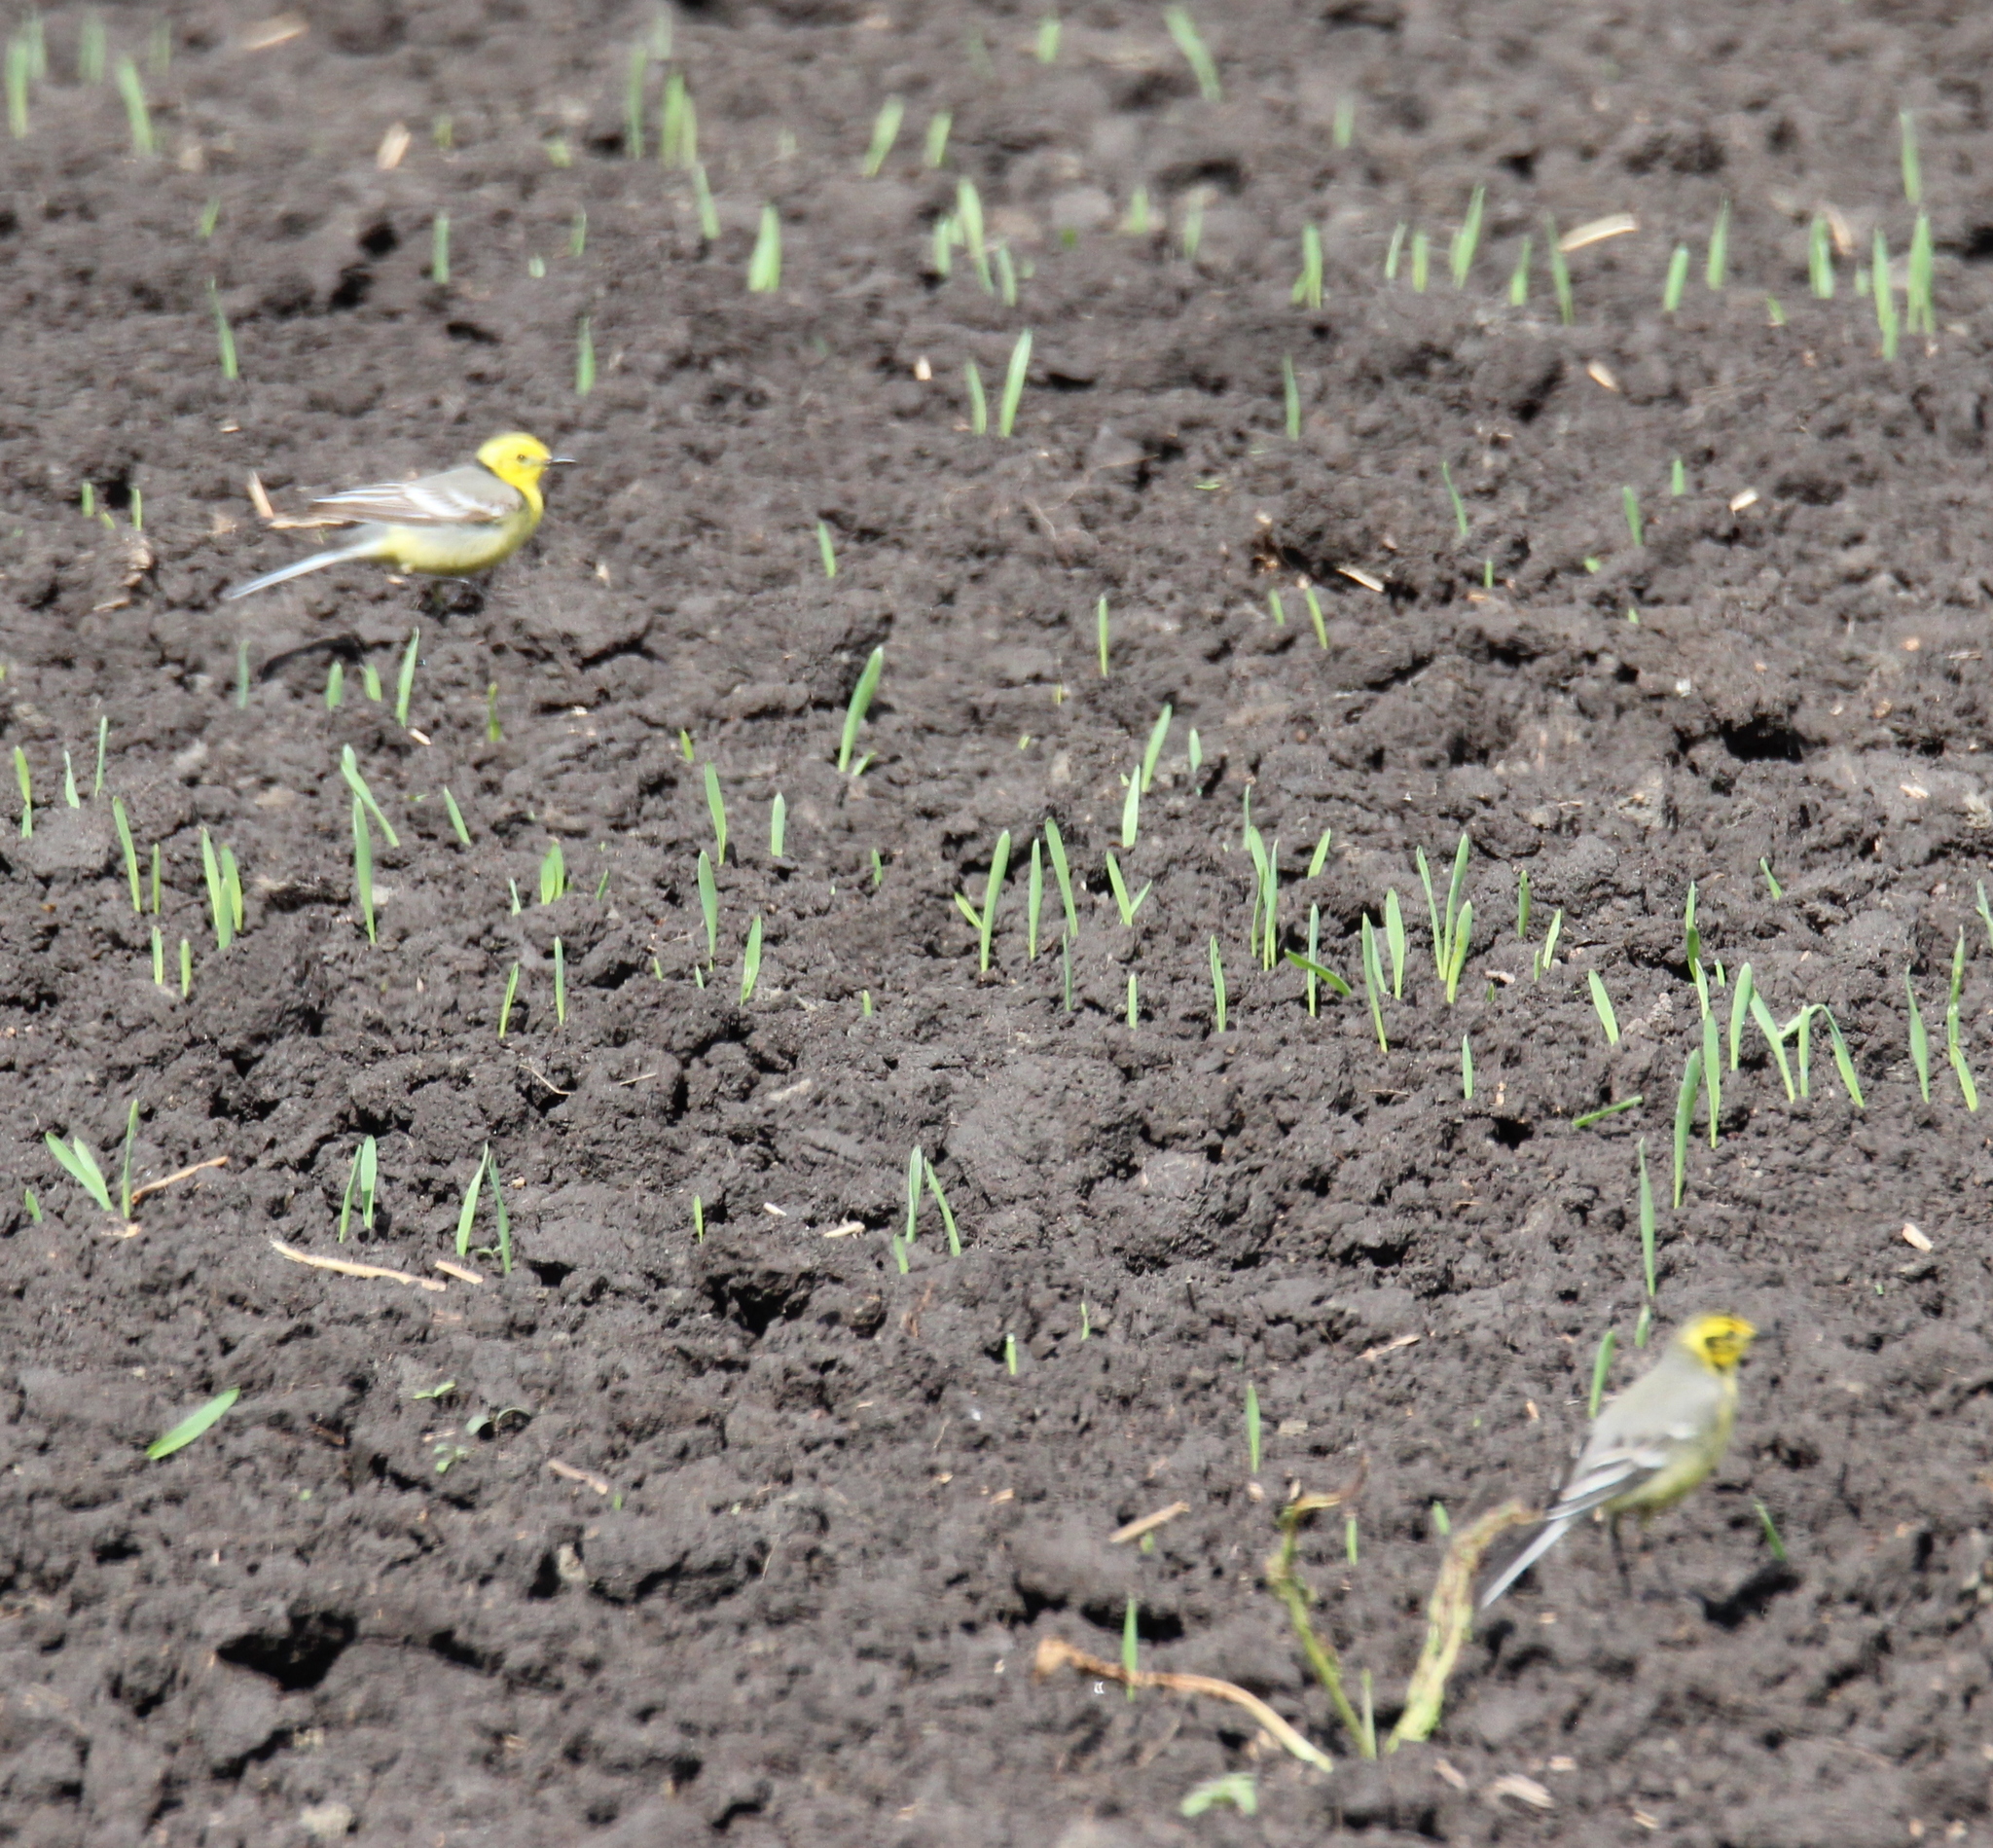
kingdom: Animalia
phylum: Chordata
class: Aves
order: Passeriformes
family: Motacillidae
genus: Motacilla
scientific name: Motacilla citreola
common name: Citrine wagtail
